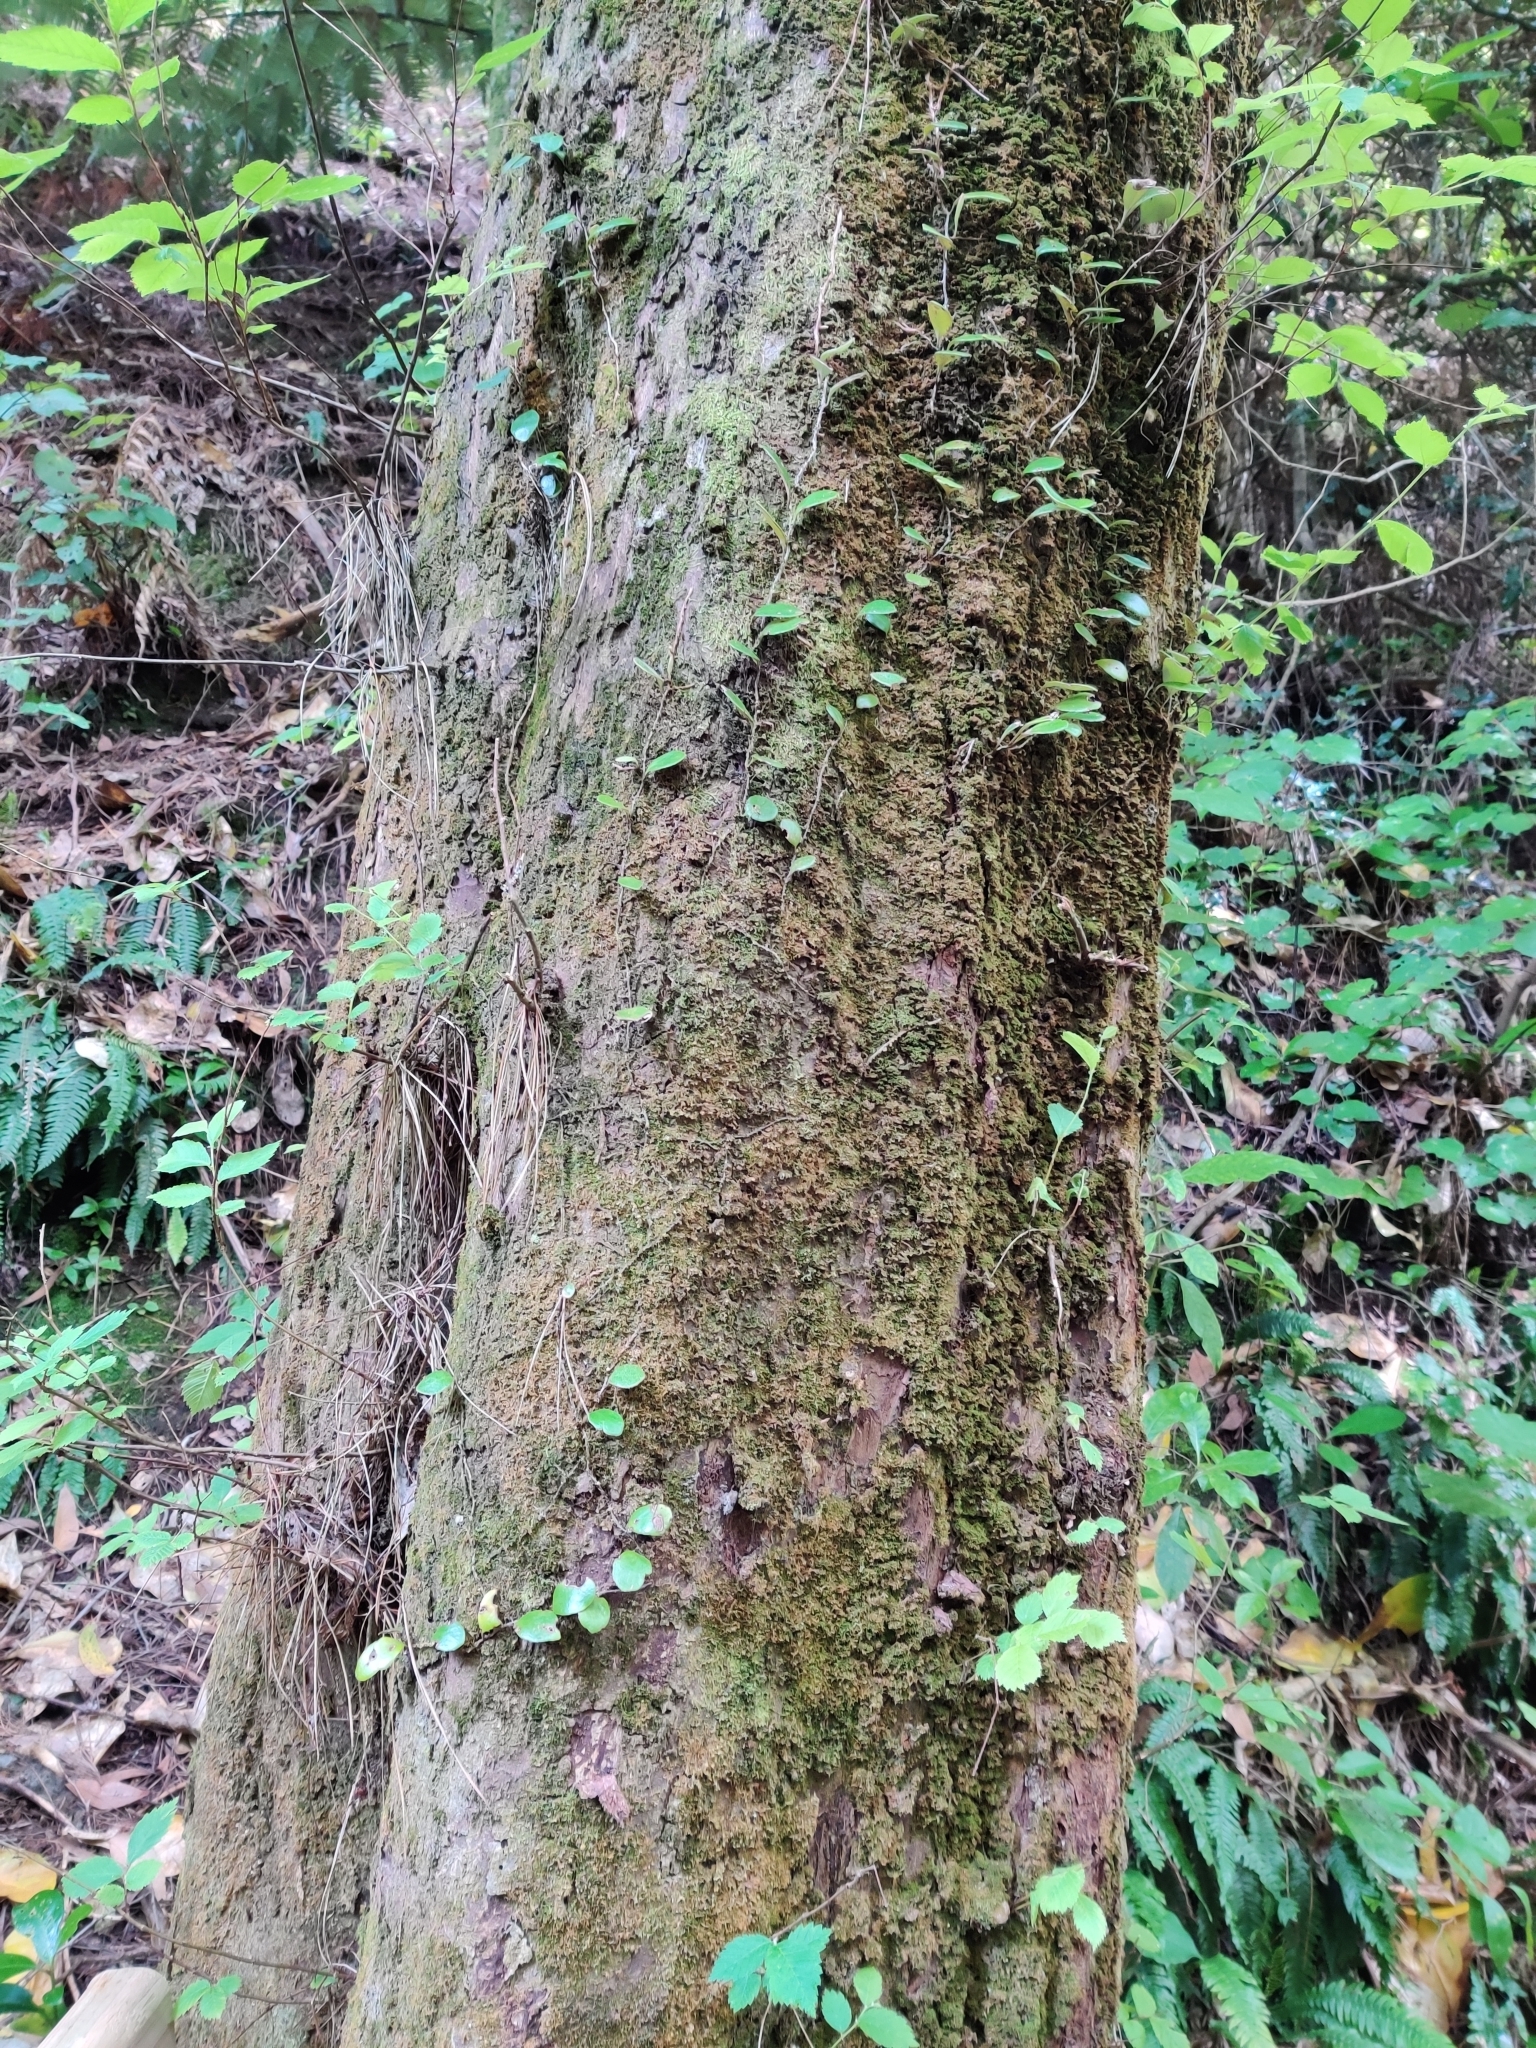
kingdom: Plantae
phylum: Tracheophyta
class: Polypodiopsida
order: Polypodiales
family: Polypodiaceae
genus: Pyrrosia
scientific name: Pyrrosia eleagnifolia
